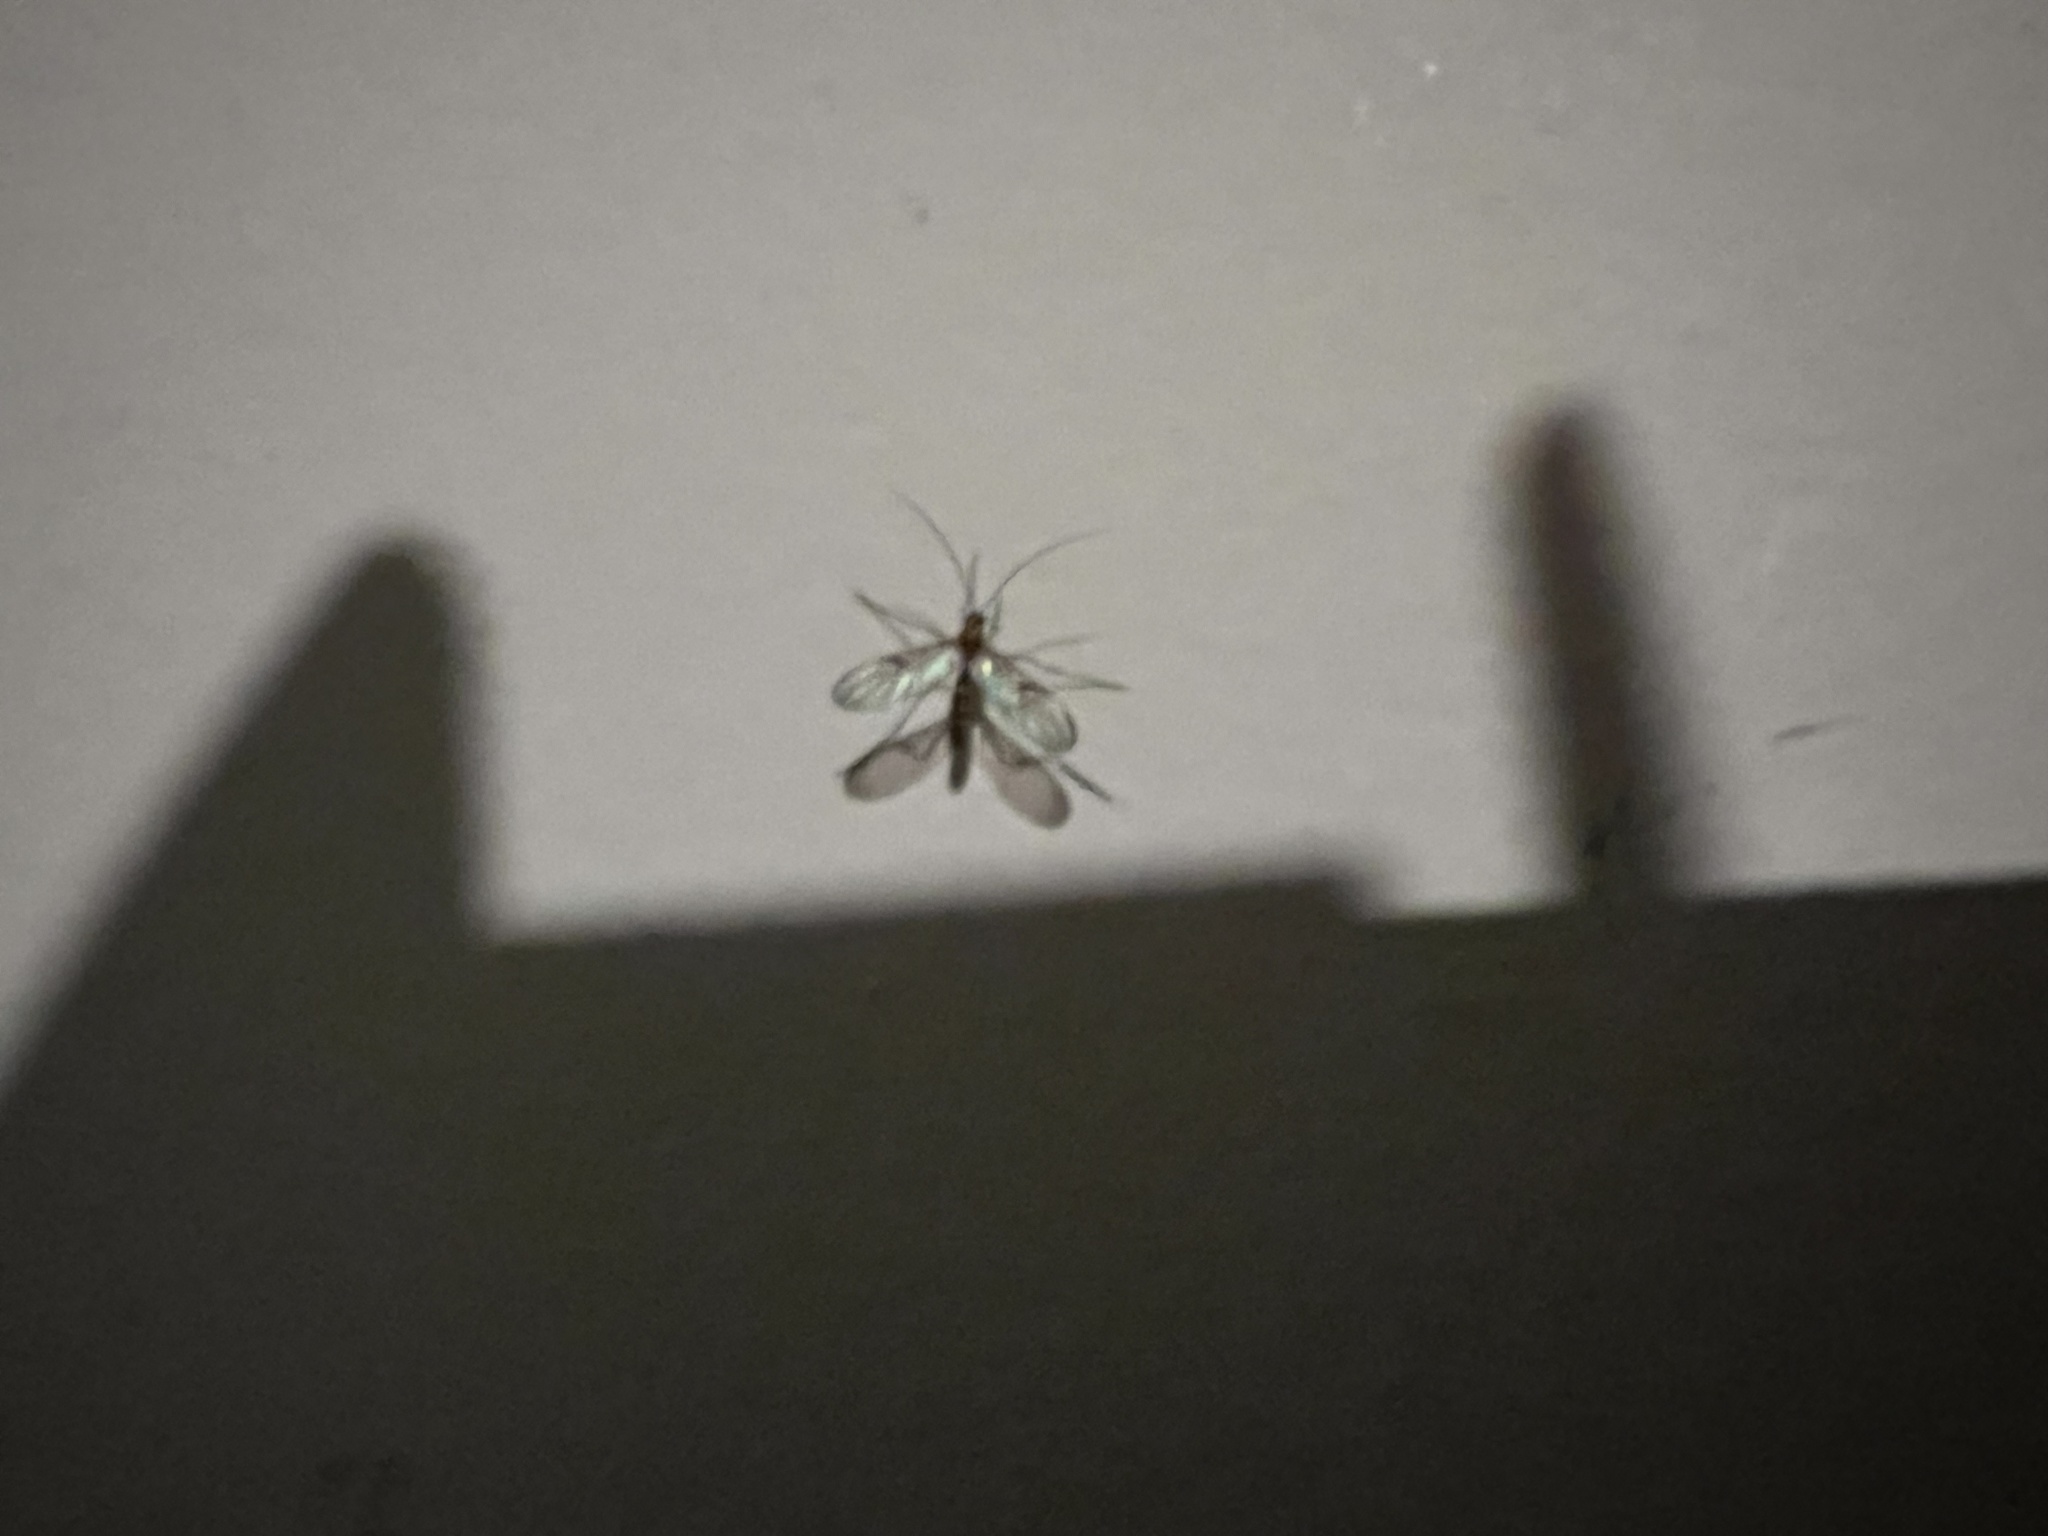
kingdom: Animalia
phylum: Arthropoda
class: Insecta
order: Diptera
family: Keroplatidae
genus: Macrocera
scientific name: Macrocera scoparia
